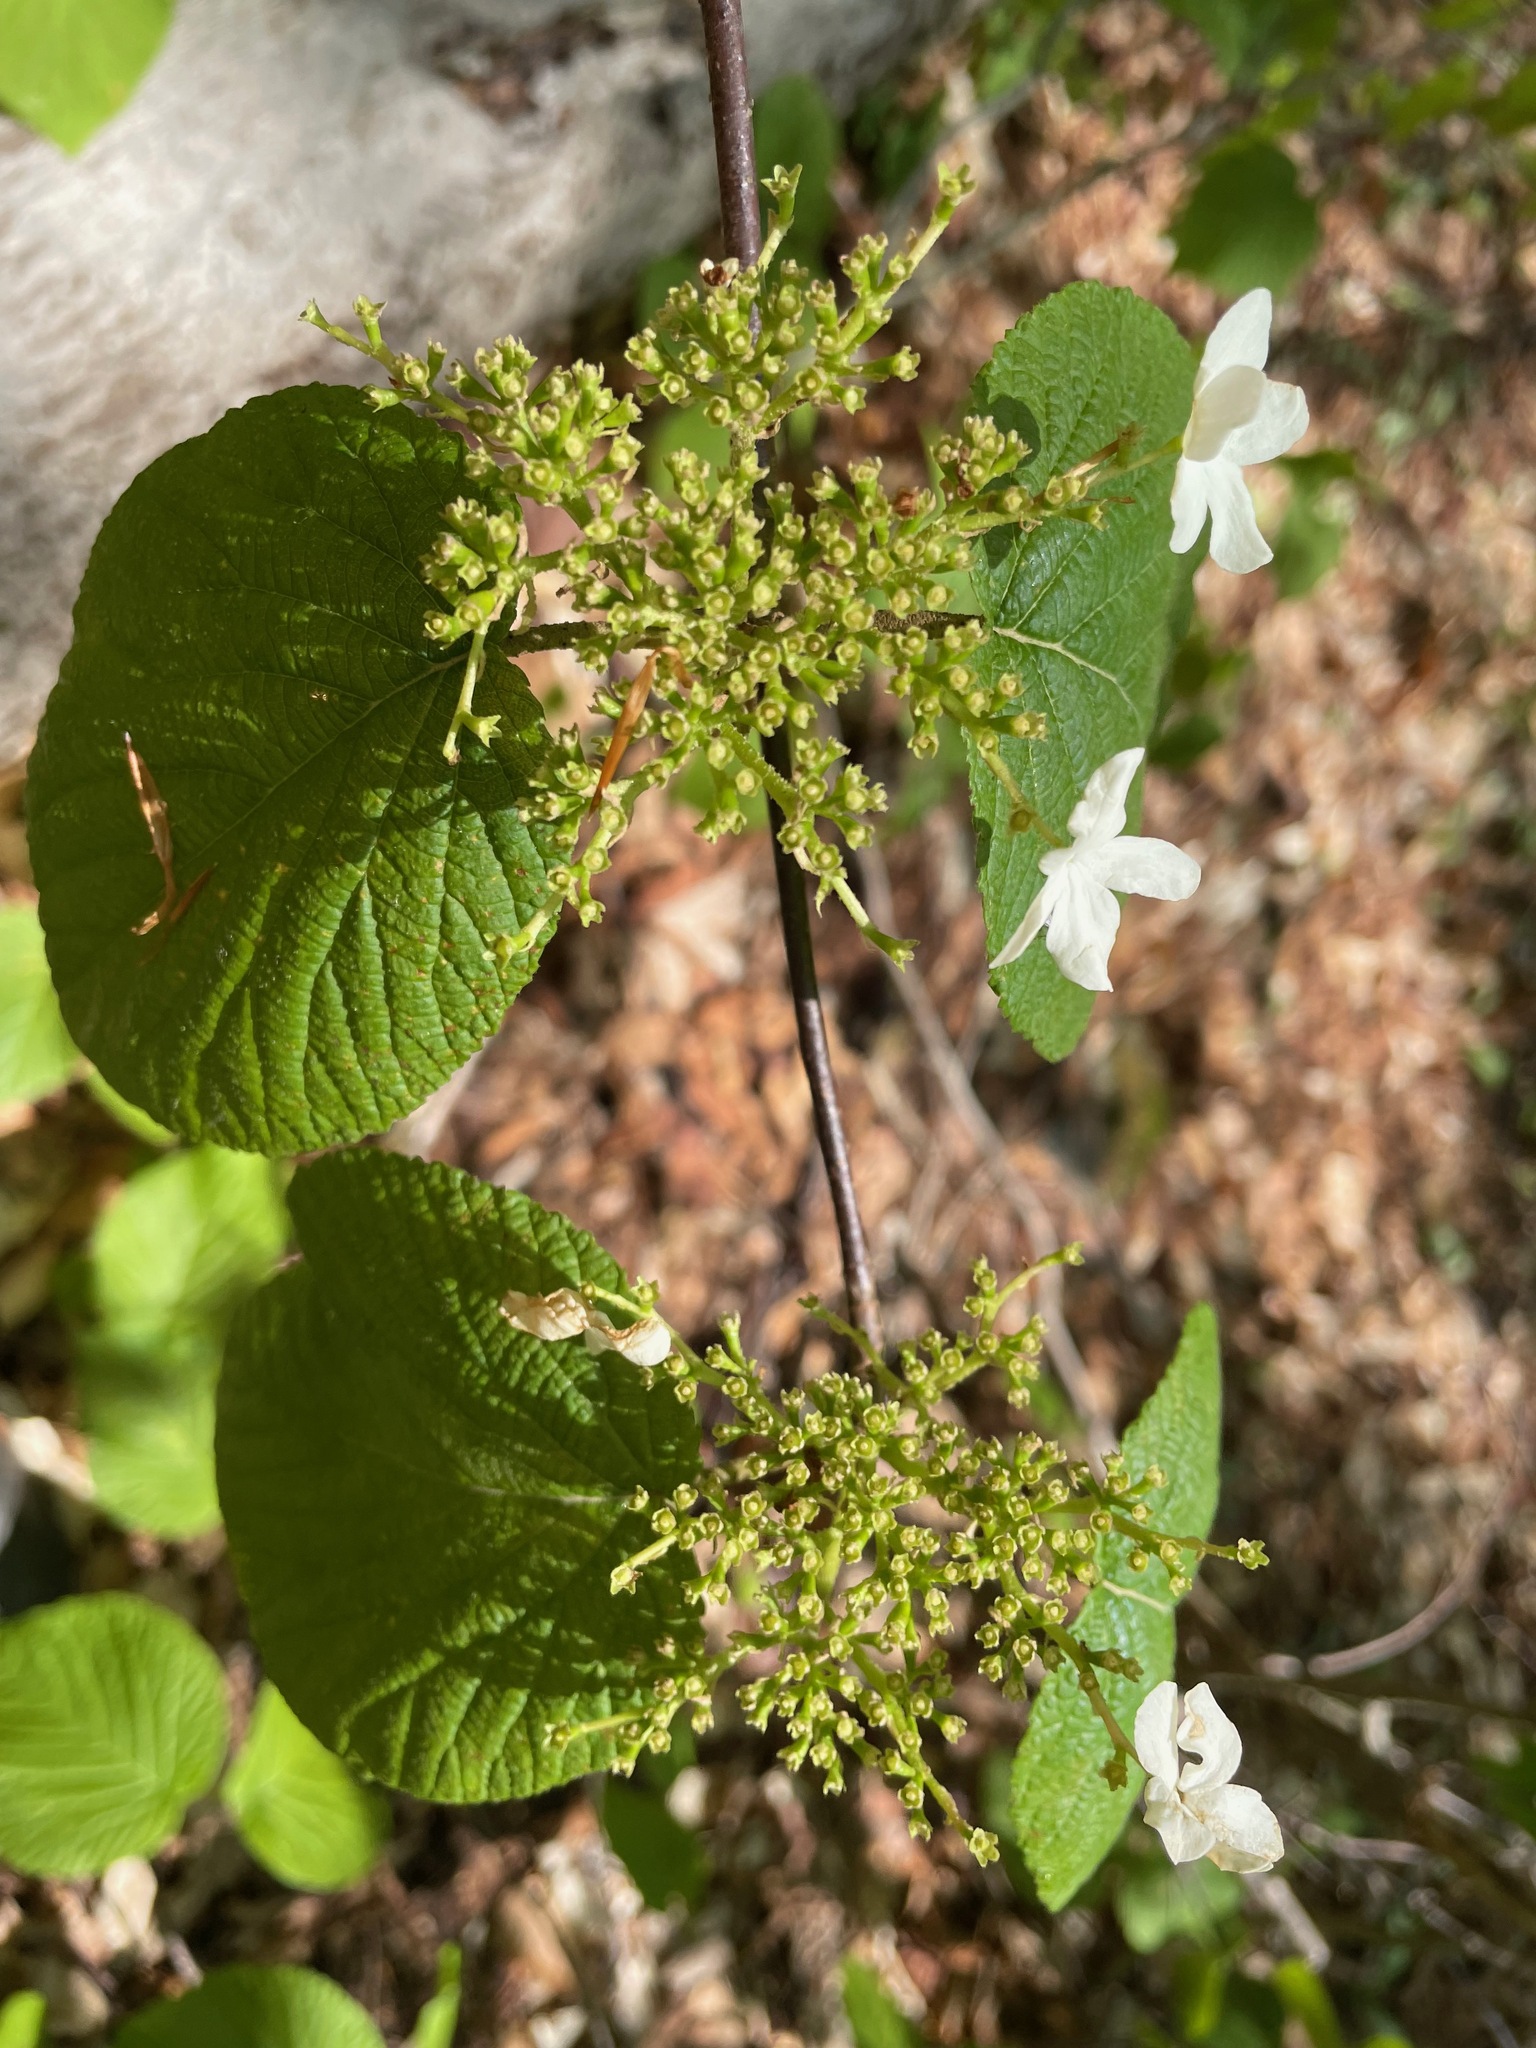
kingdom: Plantae
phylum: Tracheophyta
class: Magnoliopsida
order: Dipsacales
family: Viburnaceae
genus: Viburnum
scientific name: Viburnum lantanoides
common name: Hobblebush
